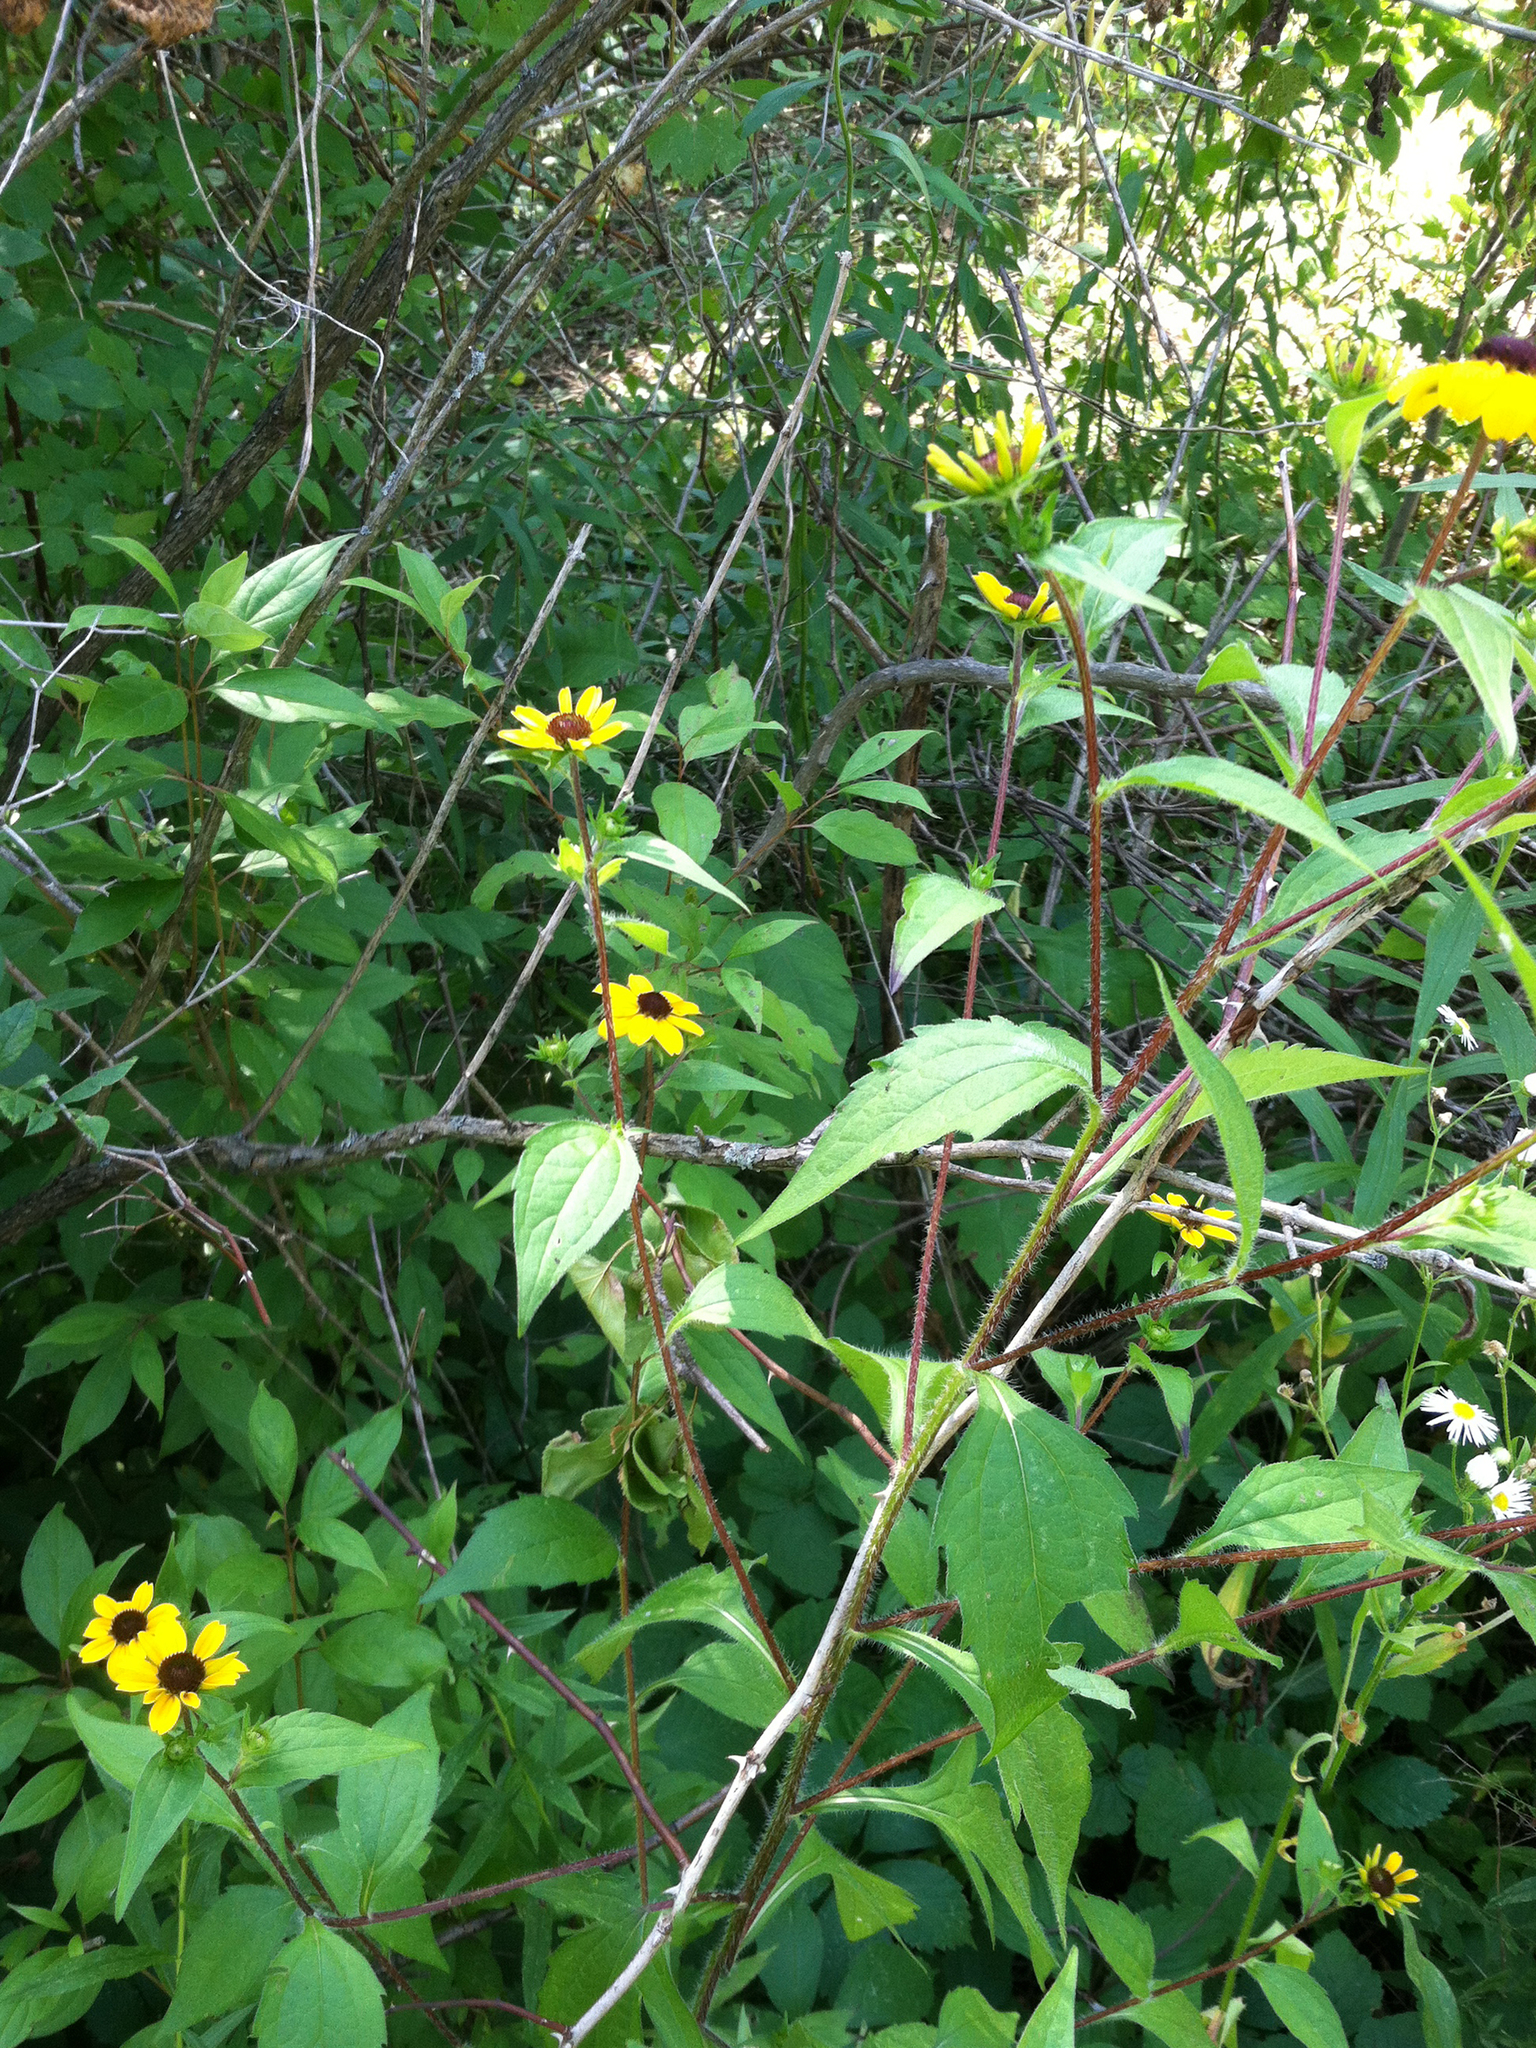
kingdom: Plantae
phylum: Tracheophyta
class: Magnoliopsida
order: Asterales
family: Asteraceae
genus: Rudbeckia
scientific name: Rudbeckia triloba
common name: Thin-leaved coneflower
